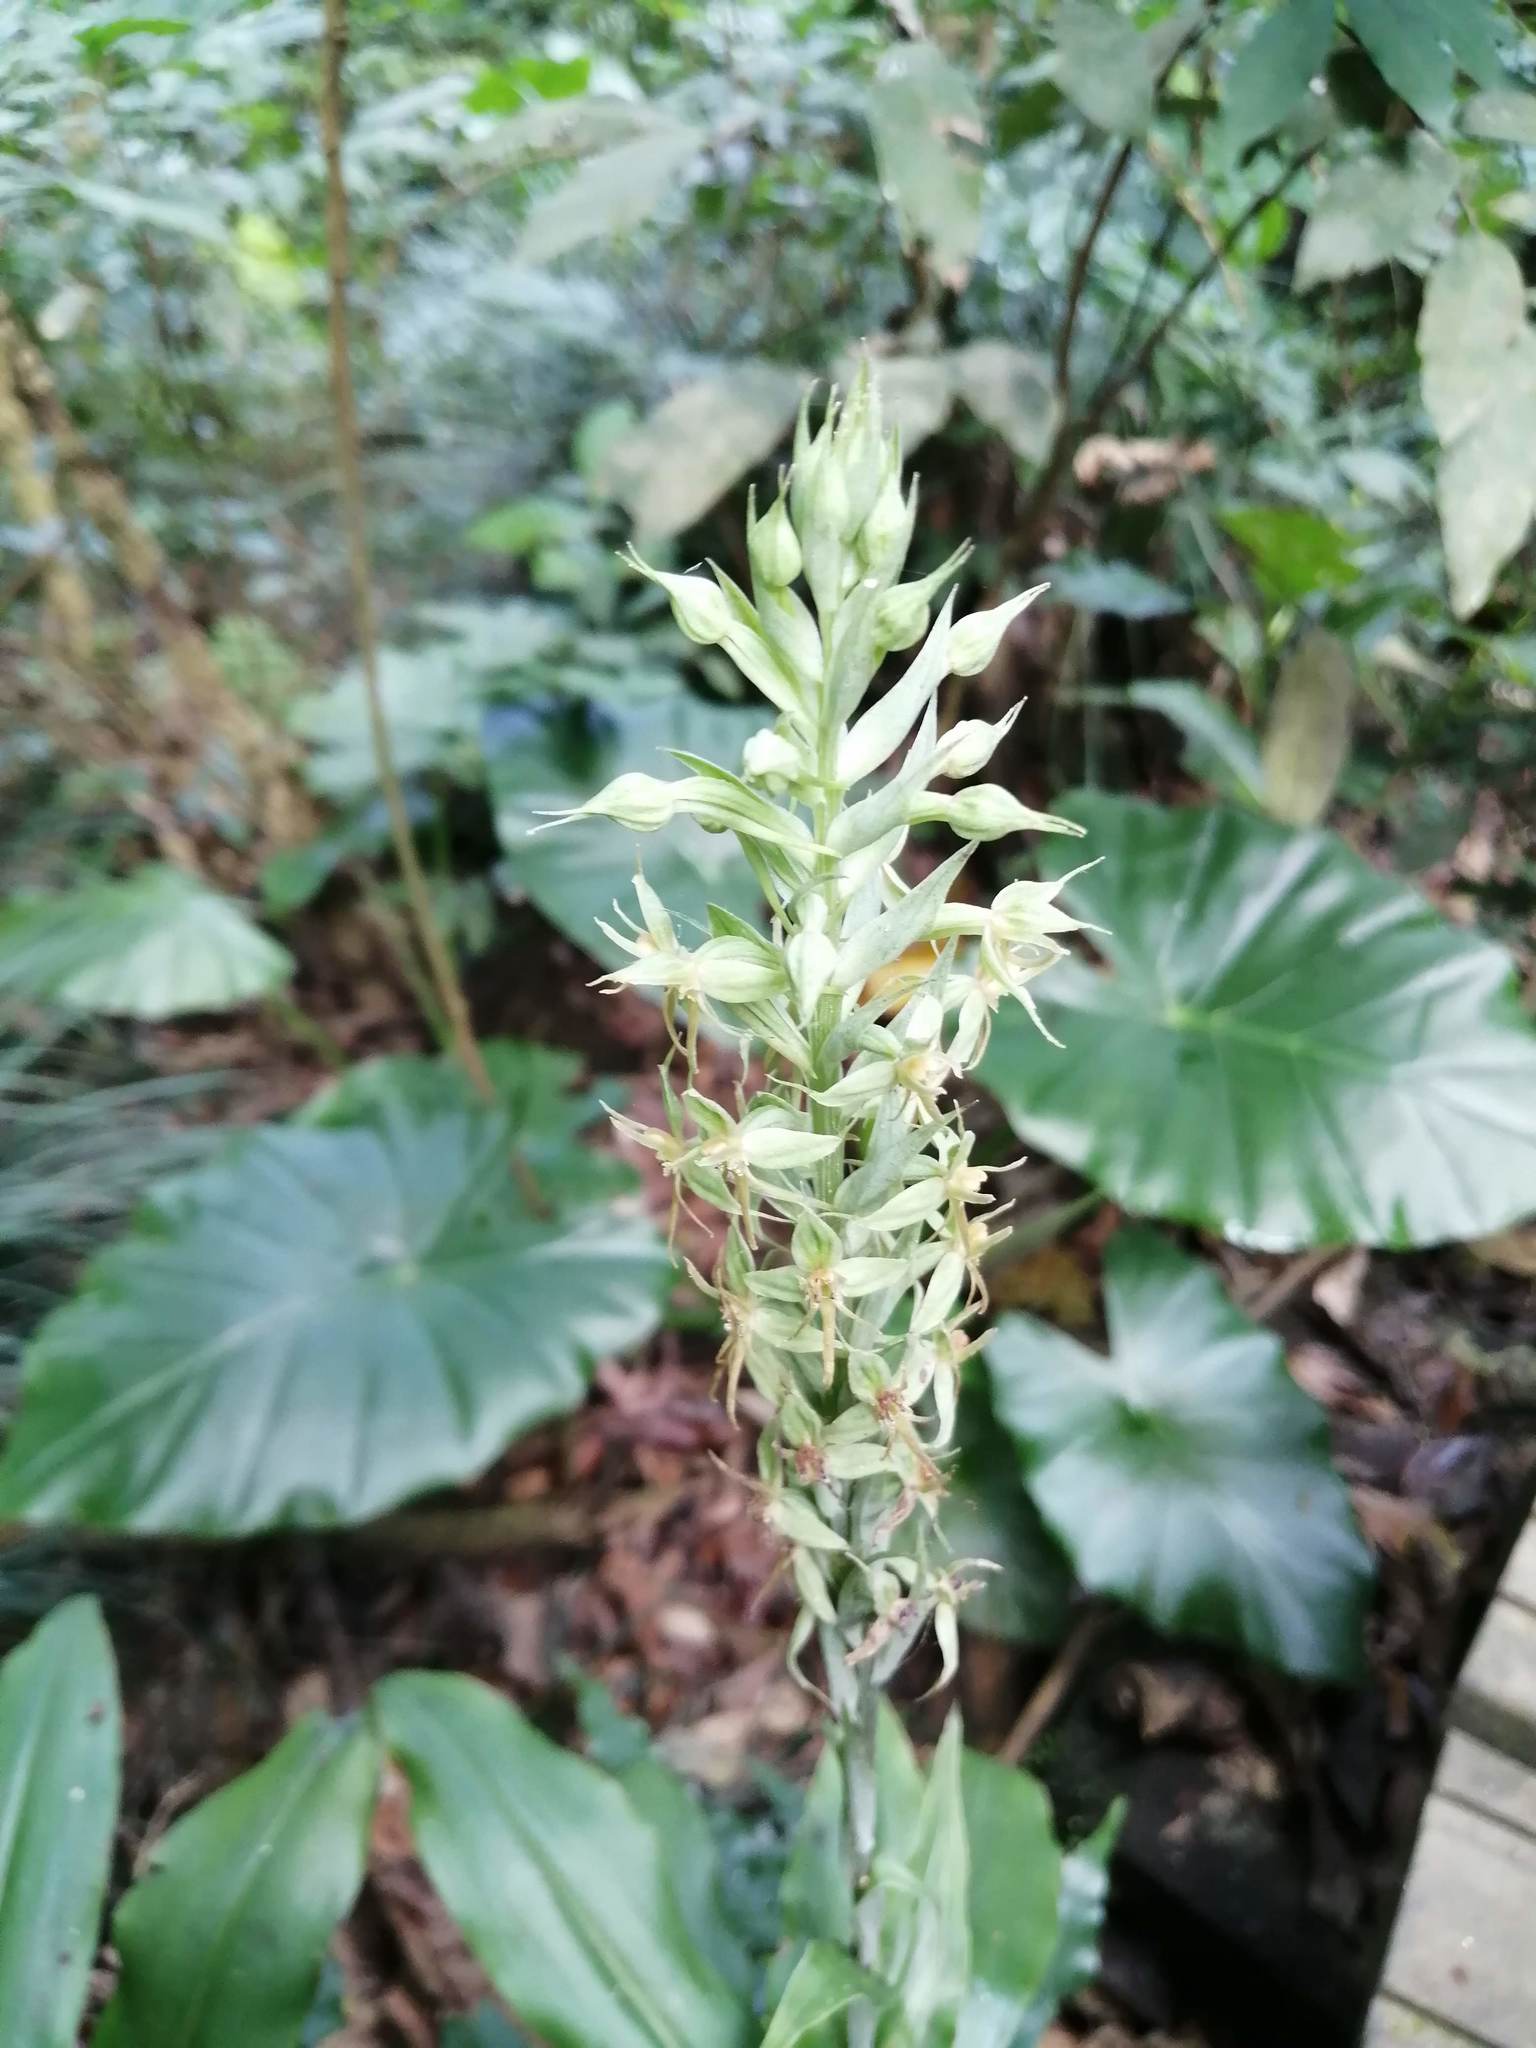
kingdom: Plantae
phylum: Tracheophyta
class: Liliopsida
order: Asparagales
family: Orchidaceae
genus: Habenaria
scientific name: Habenaria stenopetala
